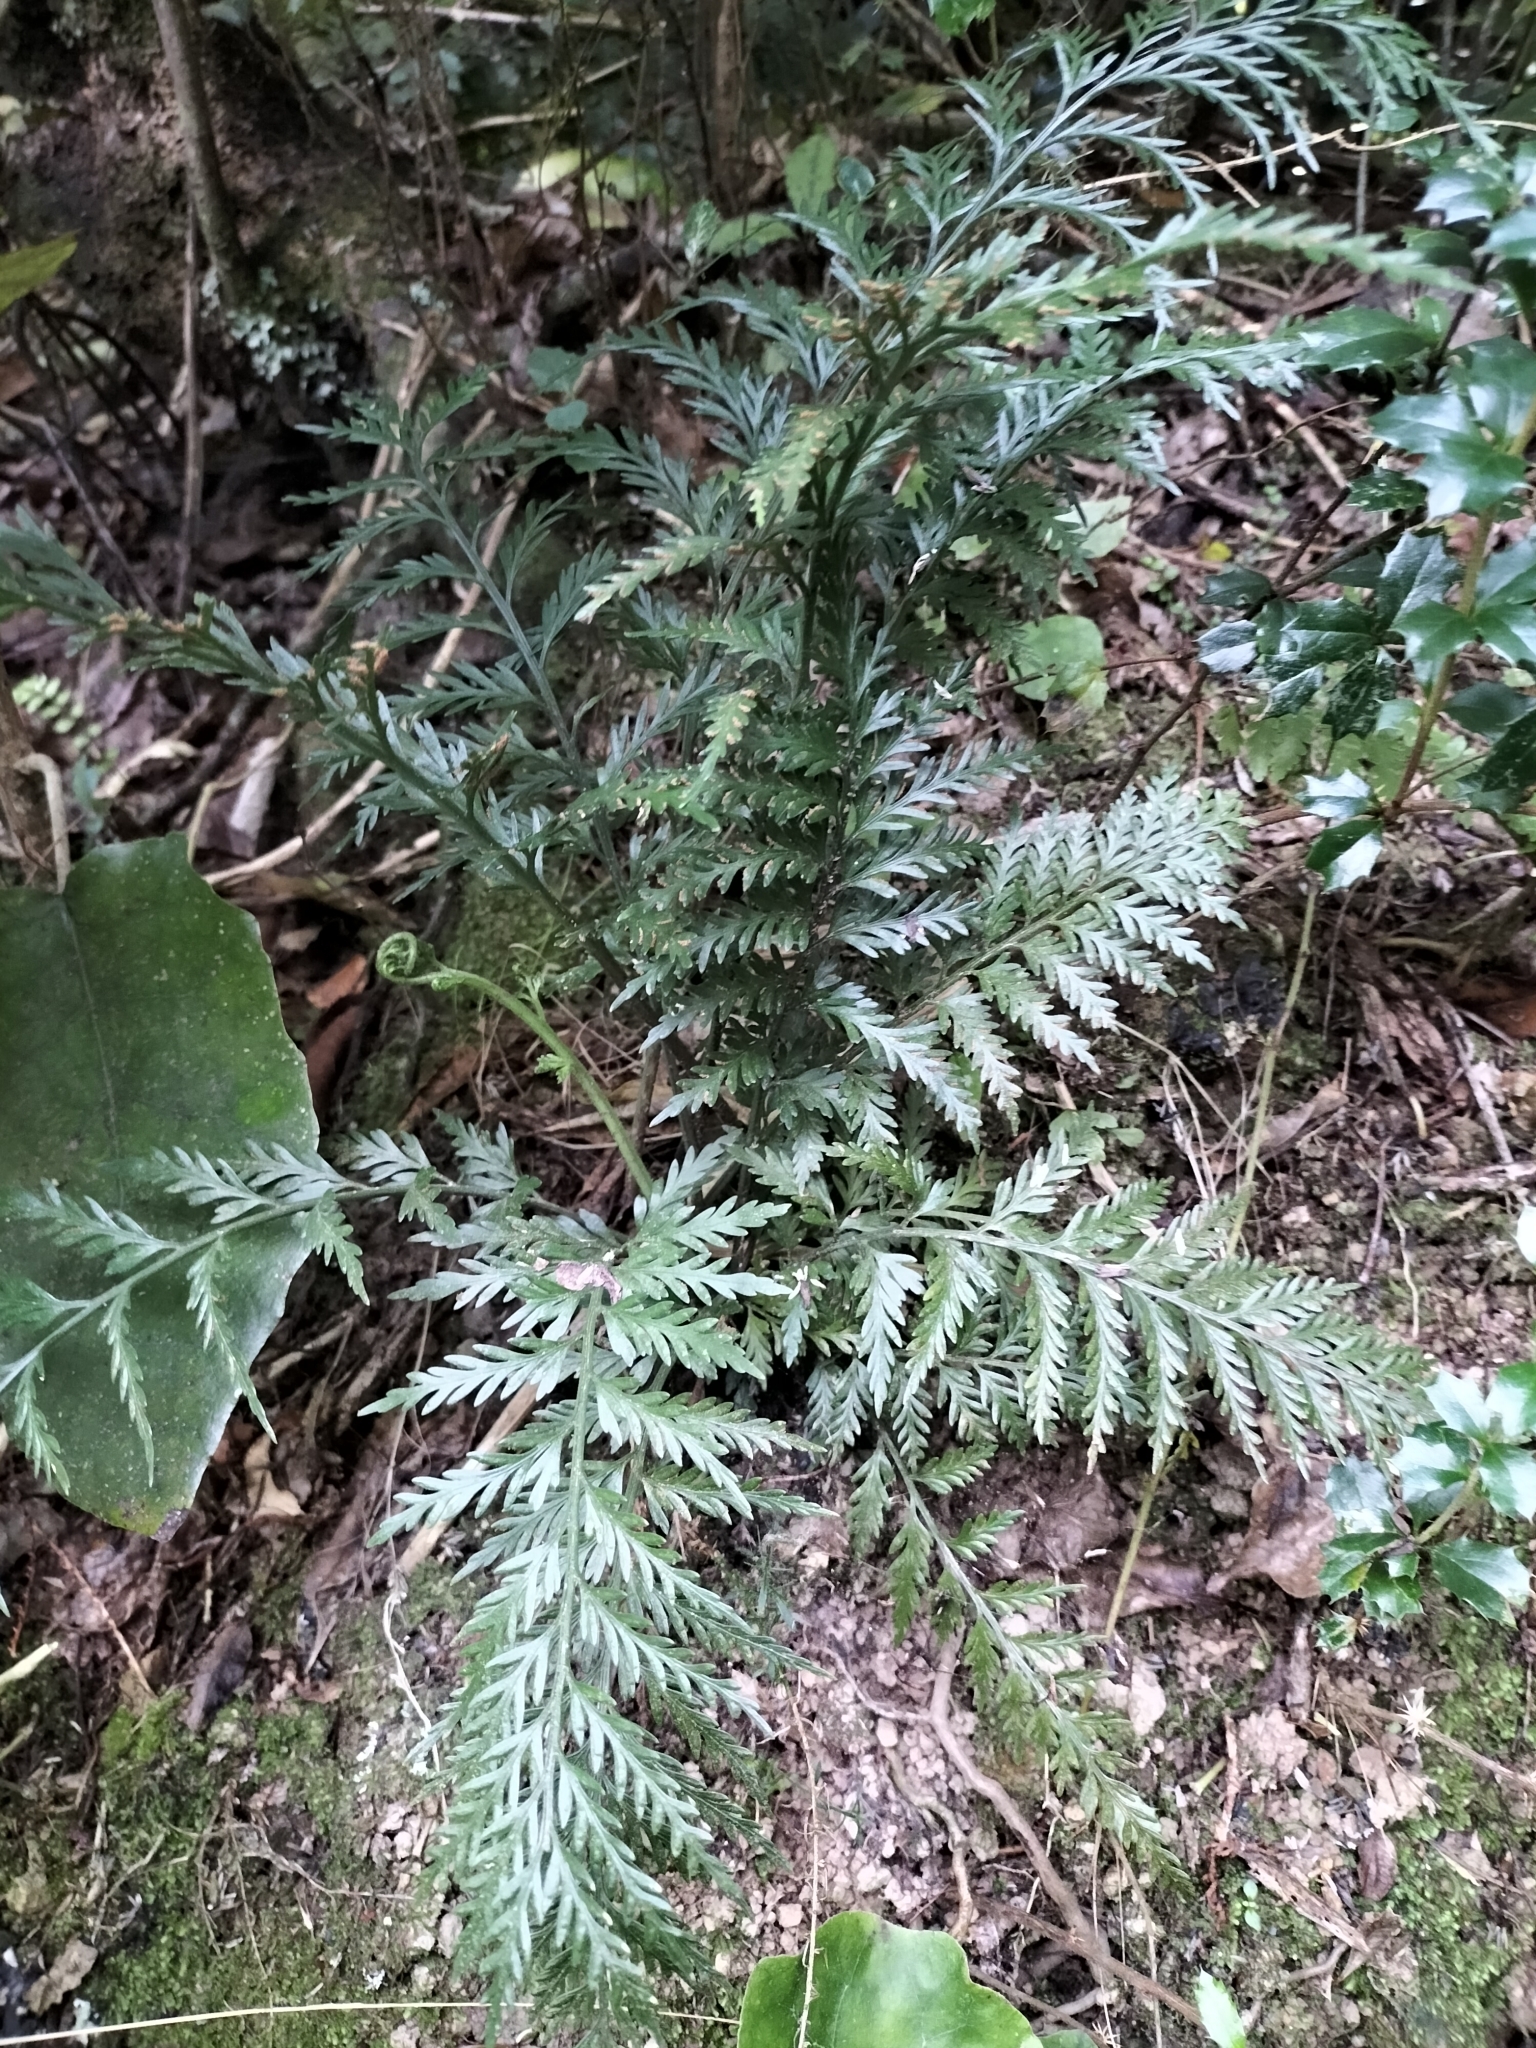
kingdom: Plantae
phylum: Tracheophyta
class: Polypodiopsida
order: Polypodiales
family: Aspleniaceae
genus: Asplenium
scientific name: Asplenium appendiculatum
